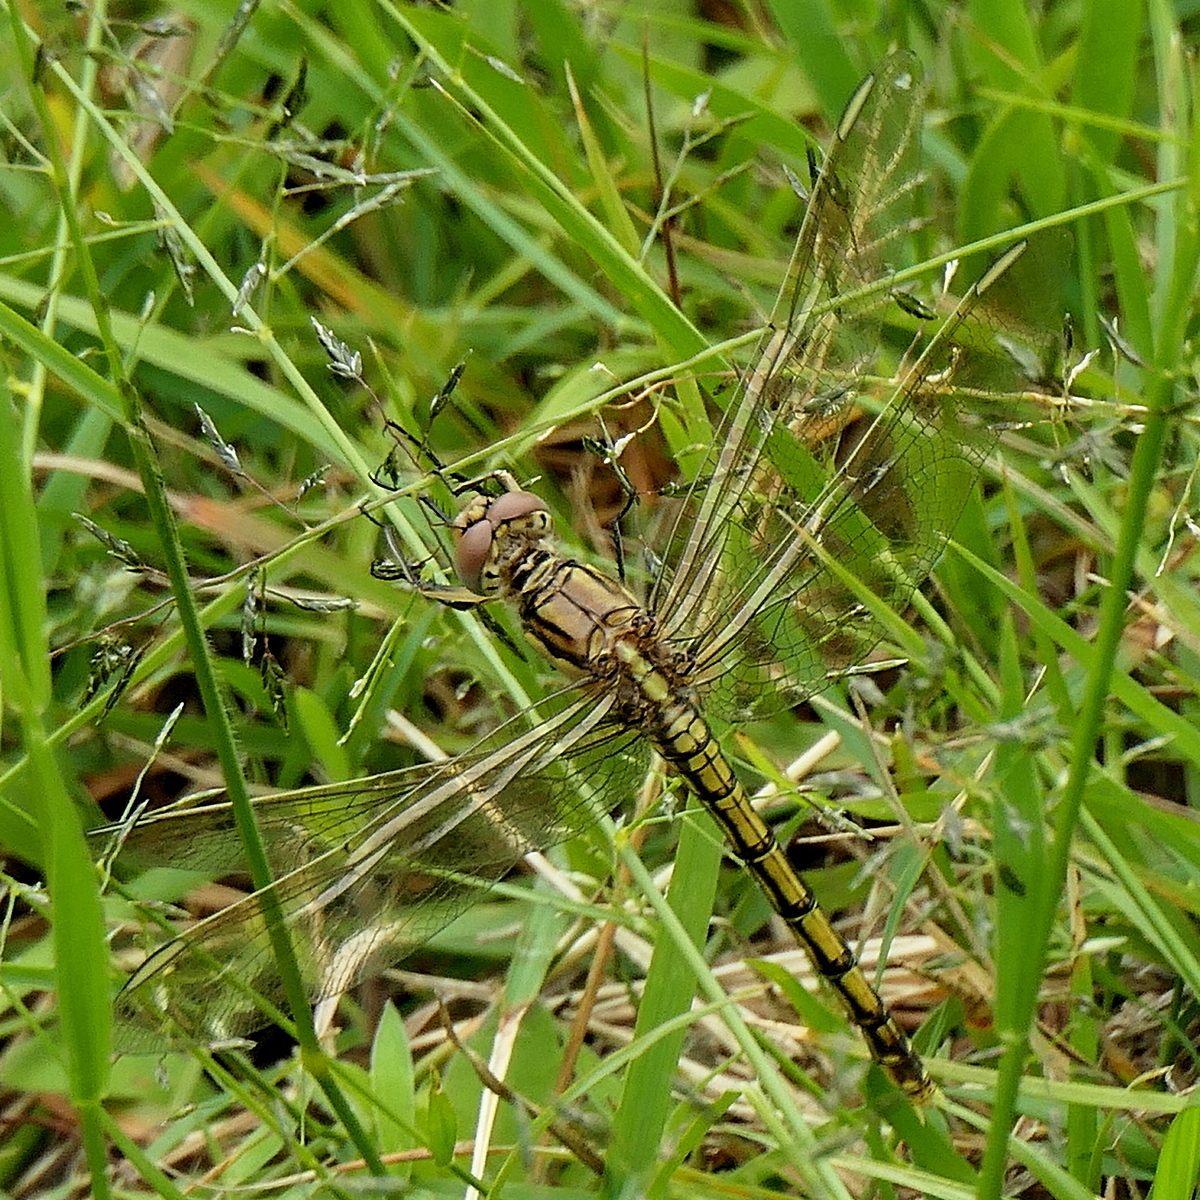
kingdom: Animalia
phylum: Arthropoda
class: Insecta
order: Odonata
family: Libellulidae
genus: Orthetrum
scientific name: Orthetrum caledonicum
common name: Blue skimmer
